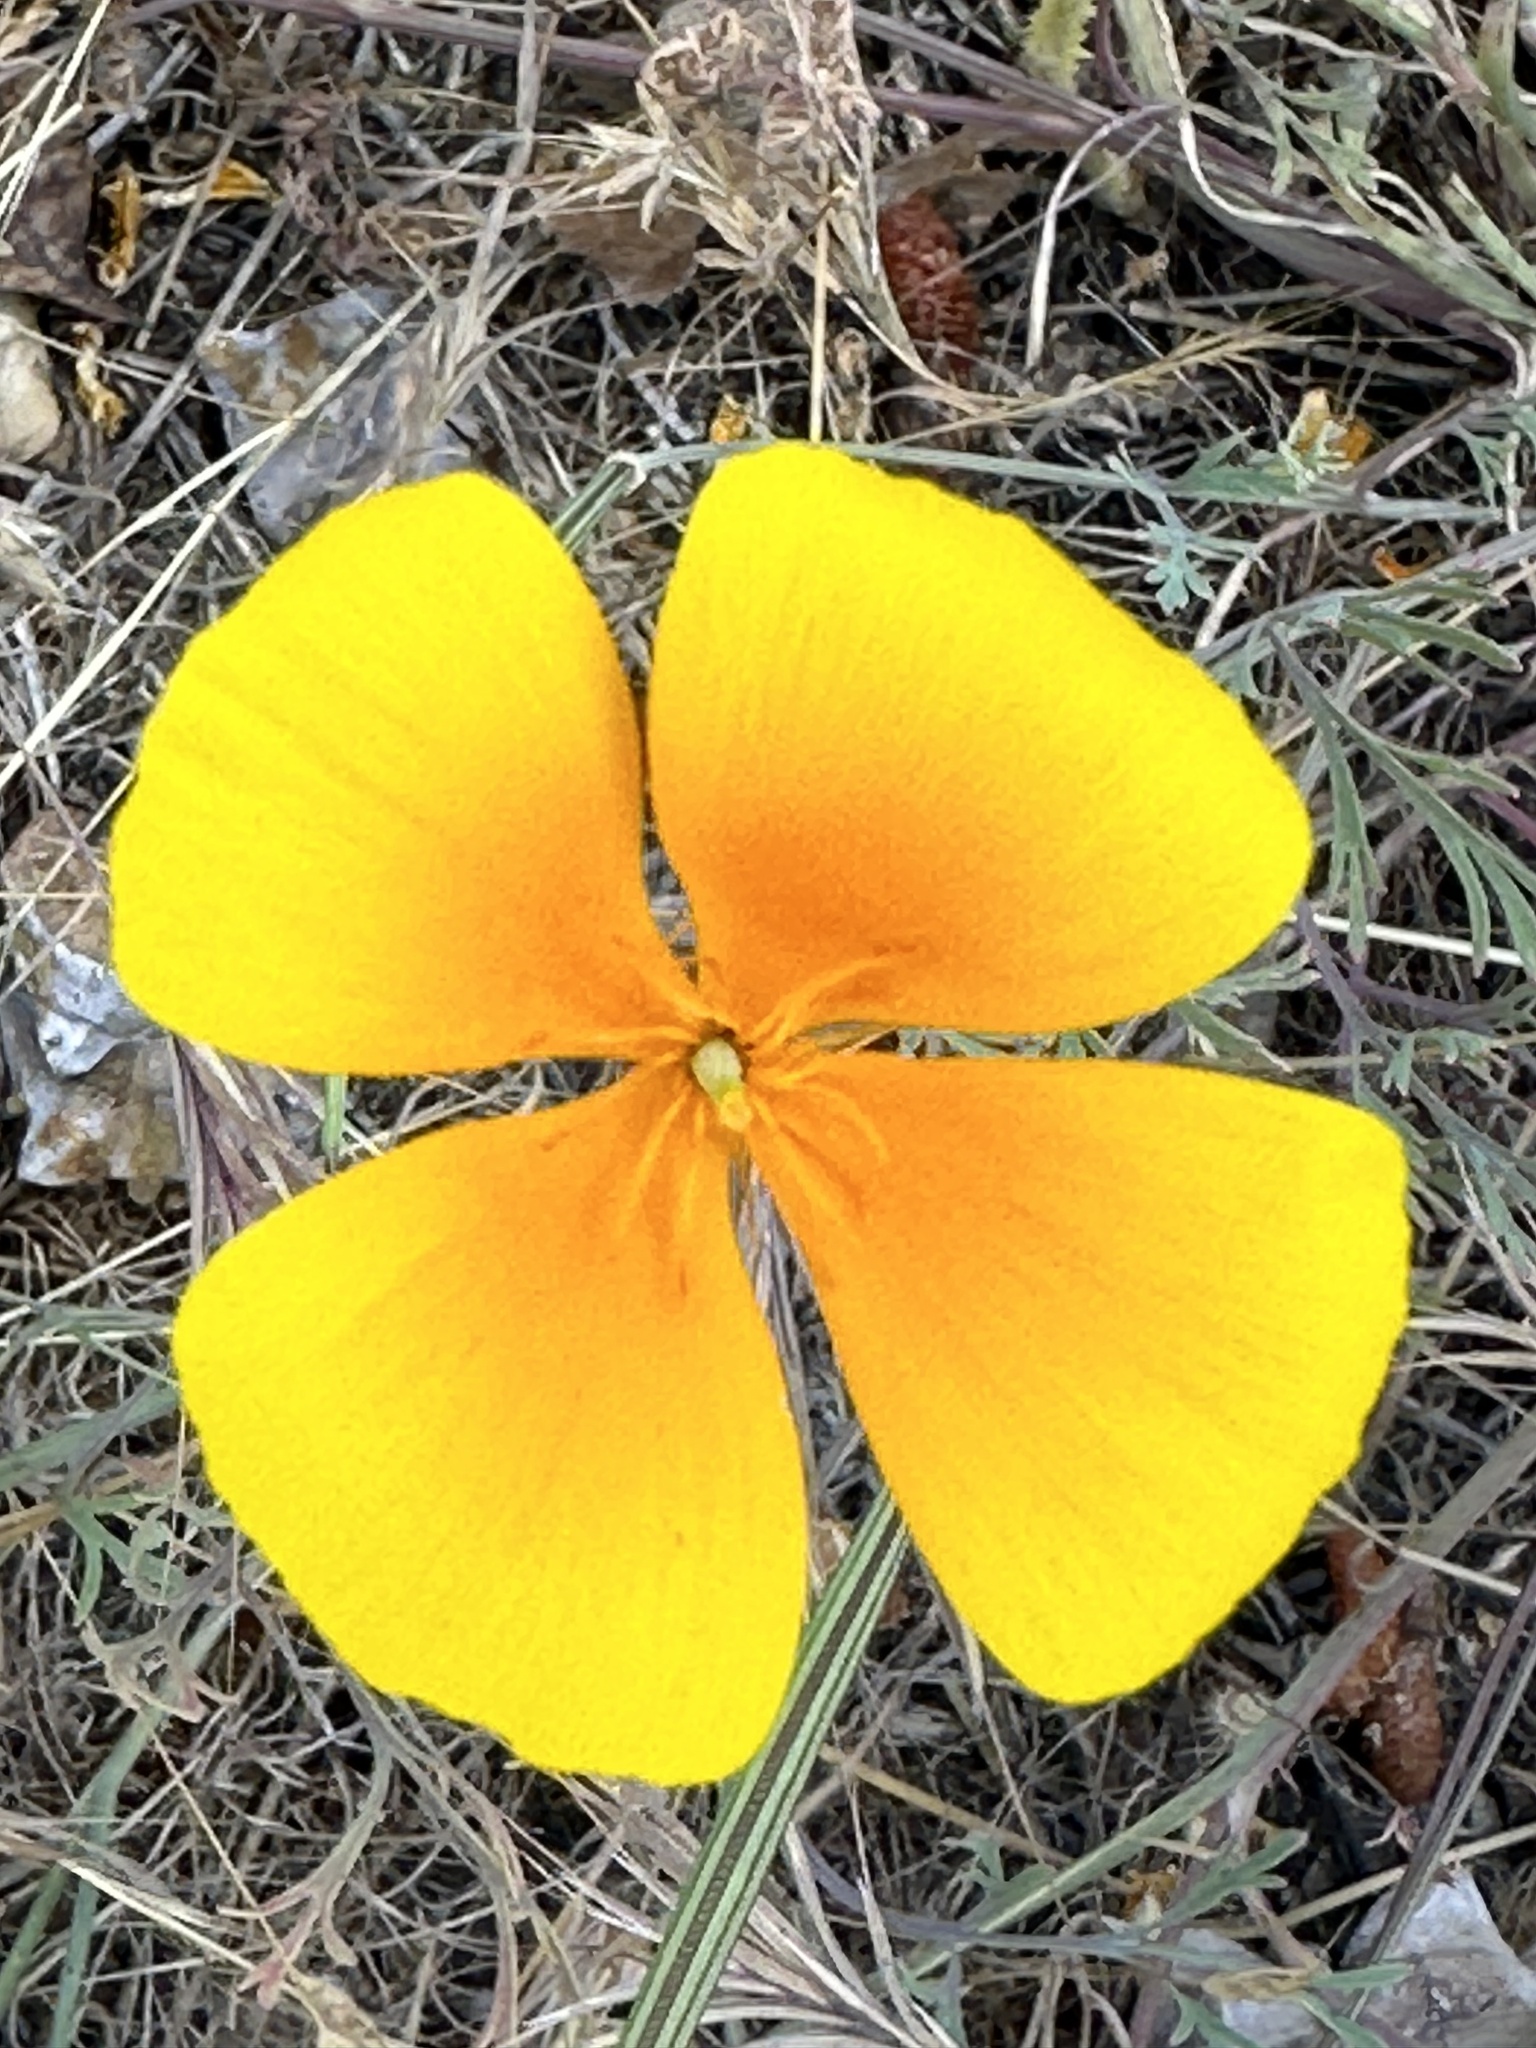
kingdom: Plantae
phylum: Tracheophyta
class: Magnoliopsida
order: Ranunculales
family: Papaveraceae
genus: Eschscholzia
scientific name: Eschscholzia californica
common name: California poppy
